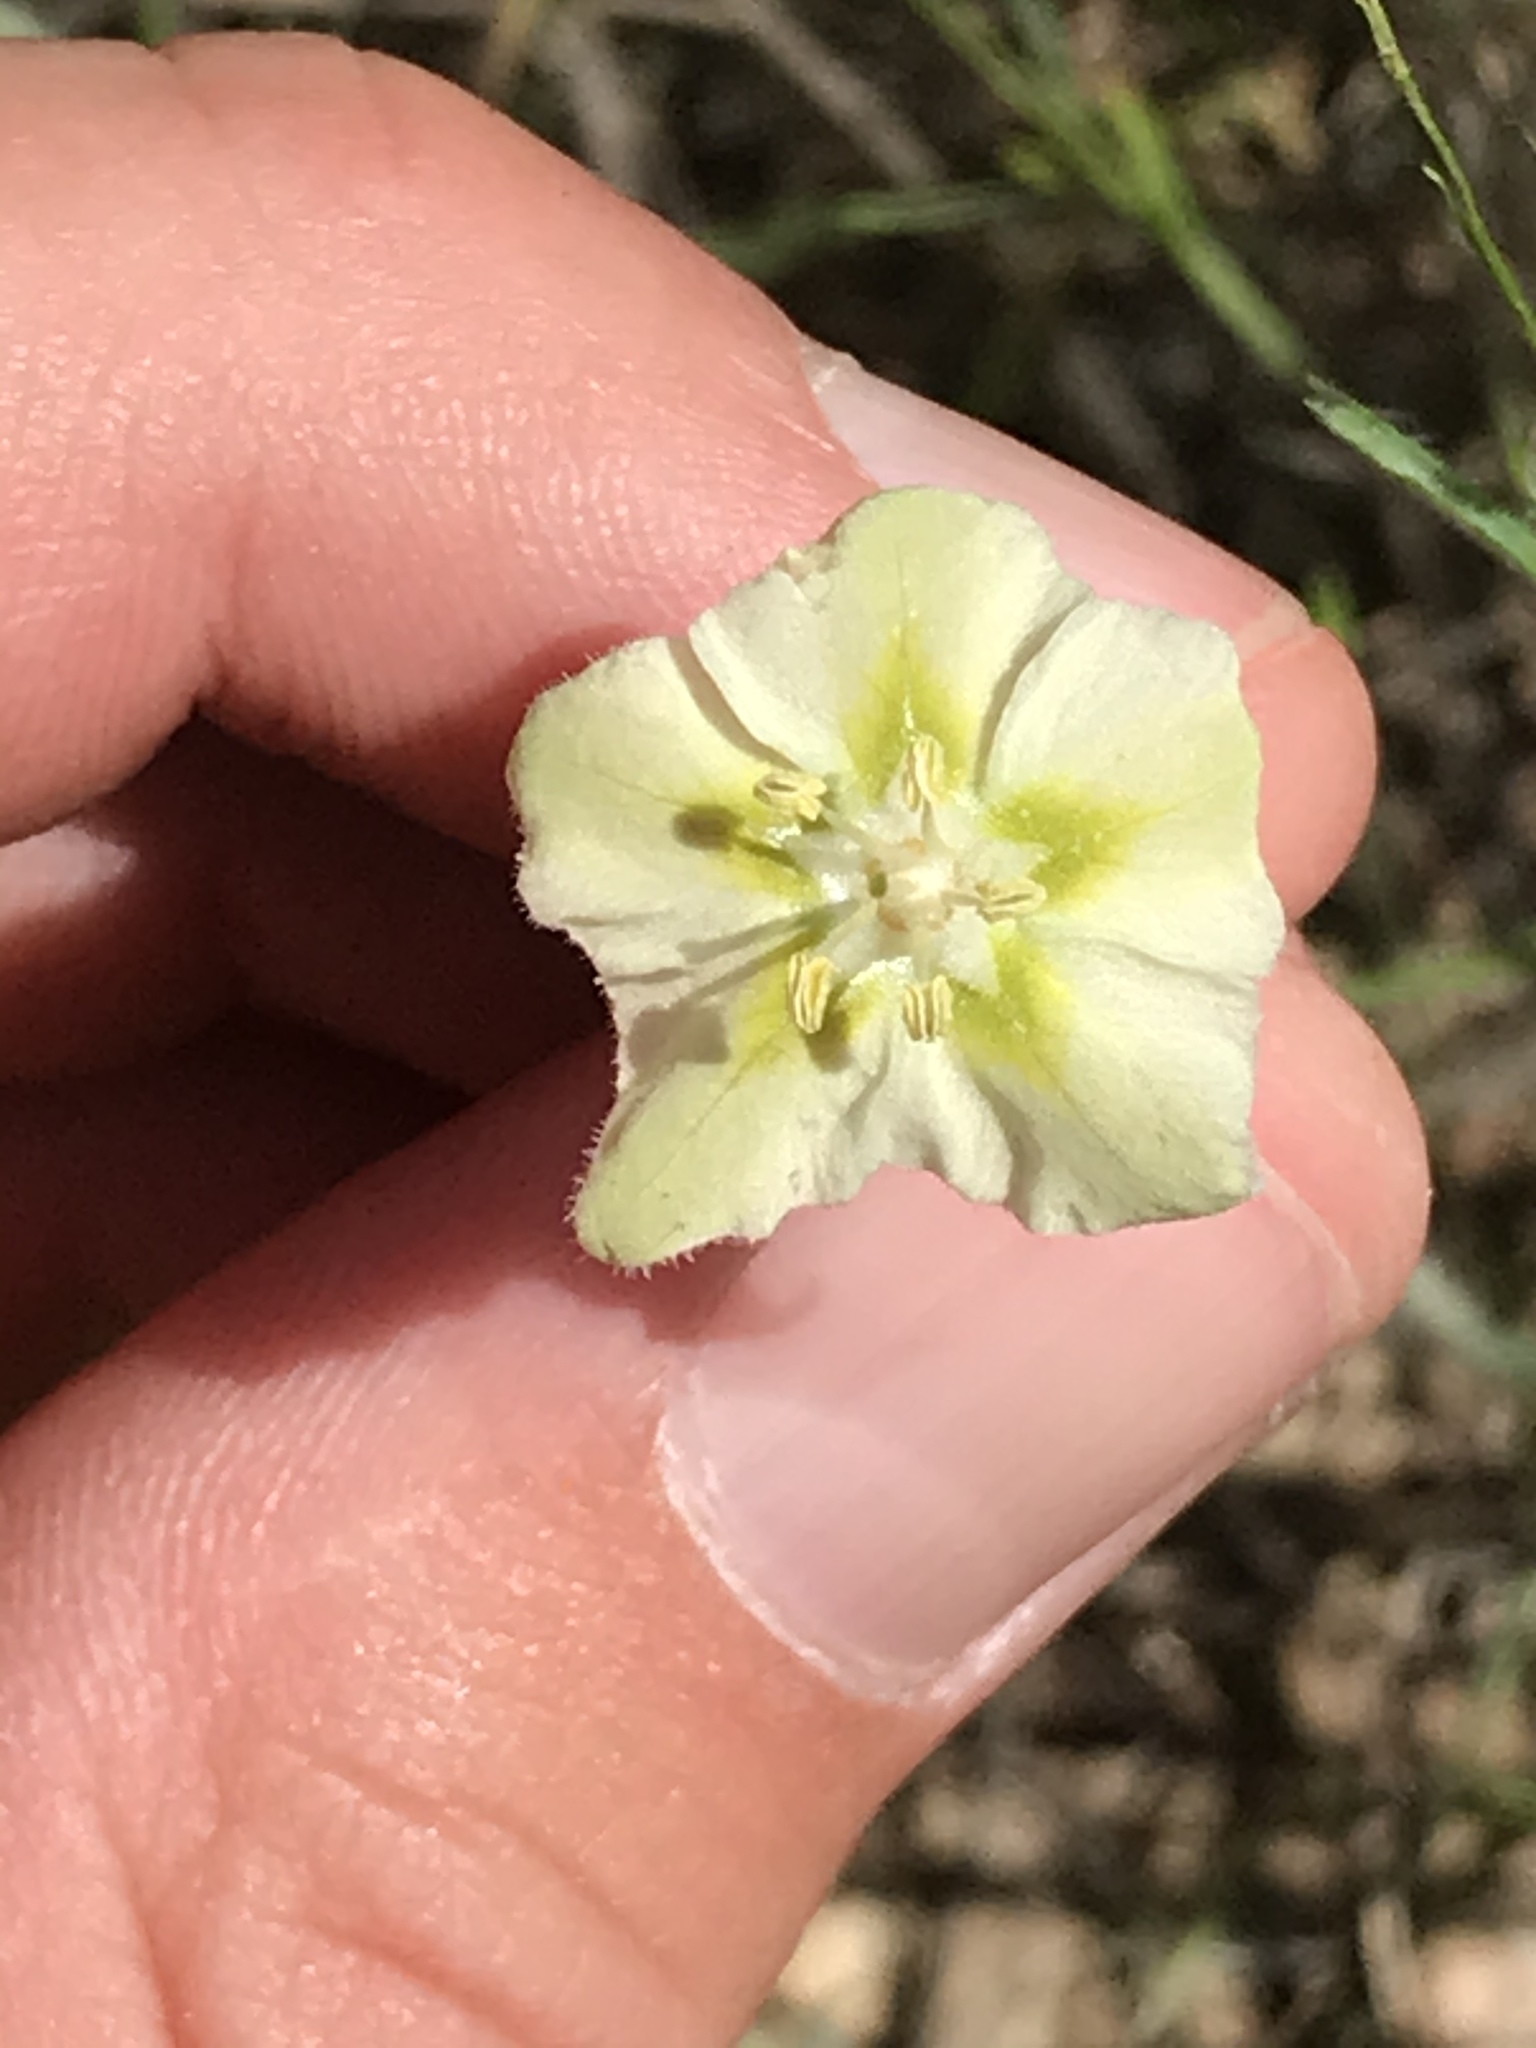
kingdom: Plantae
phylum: Tracheophyta
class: Magnoliopsida
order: Solanales
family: Solanaceae
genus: Chamaesaracha
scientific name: Chamaesaracha coniodes
